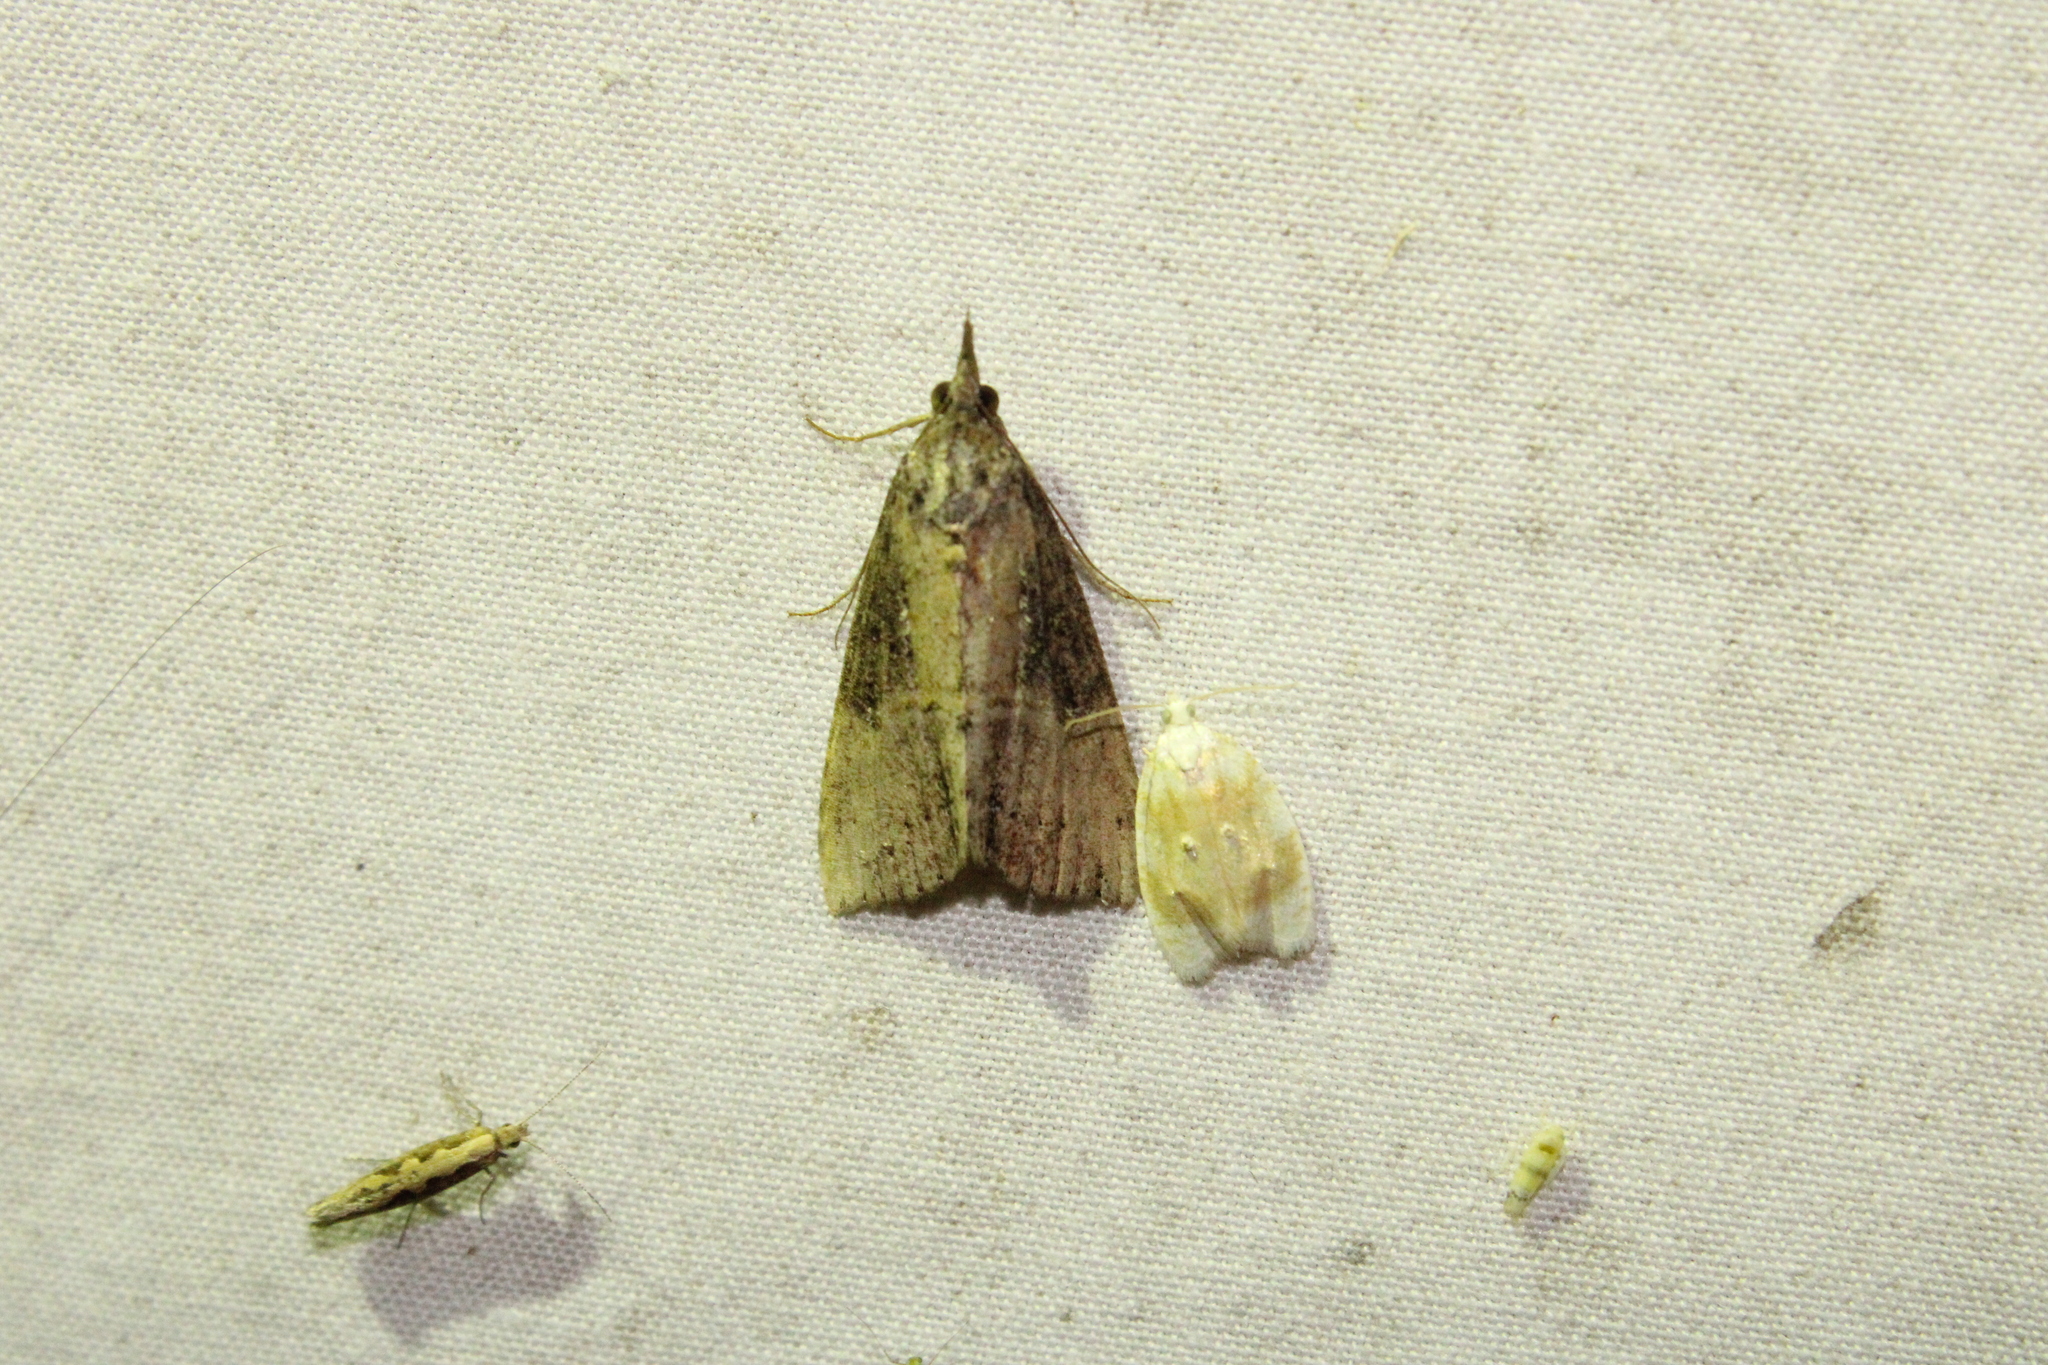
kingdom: Animalia
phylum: Arthropoda
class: Insecta
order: Lepidoptera
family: Erebidae
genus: Hypena
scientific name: Hypena scabra
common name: Green cloverworm
